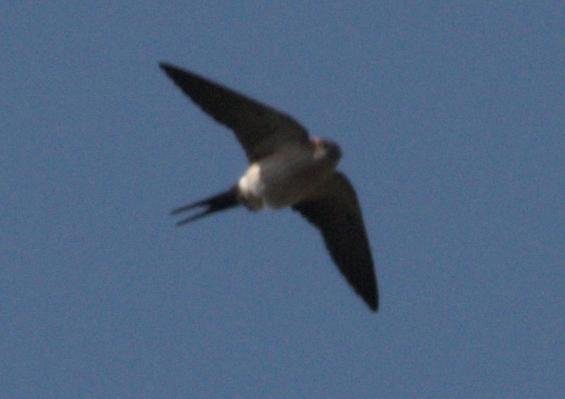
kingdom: Animalia
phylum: Chordata
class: Aves
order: Passeriformes
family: Hirundinidae
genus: Cecropis
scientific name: Cecropis daurica
